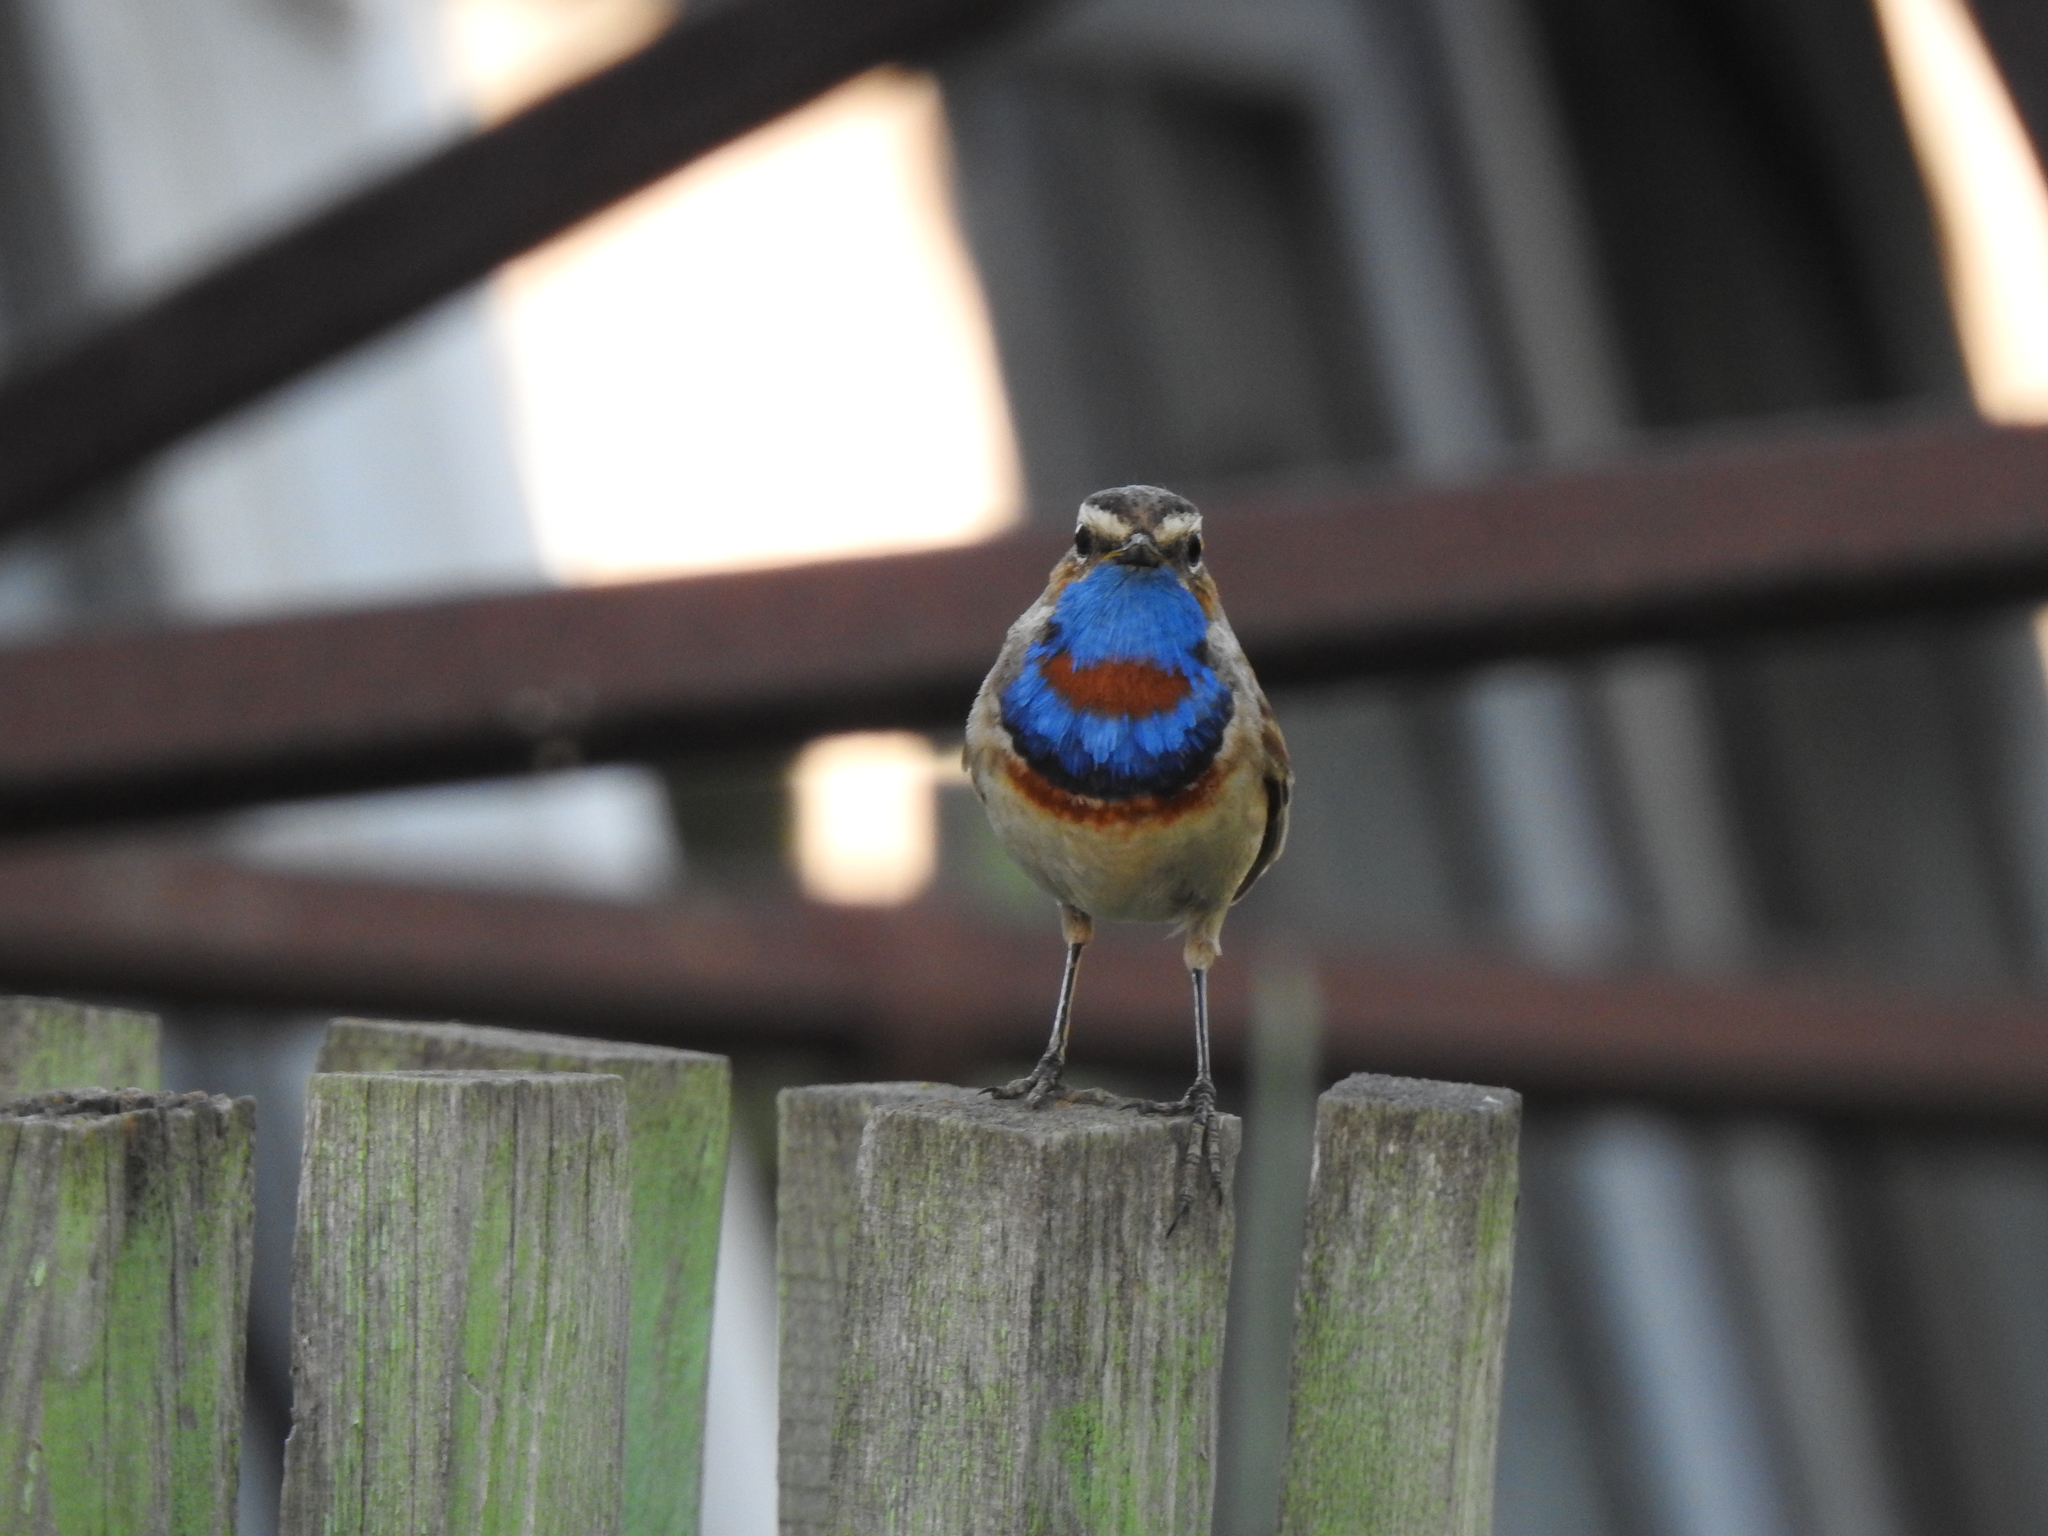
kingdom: Animalia
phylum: Chordata
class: Aves
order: Passeriformes
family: Muscicapidae
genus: Luscinia
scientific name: Luscinia svecica
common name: Bluethroat
